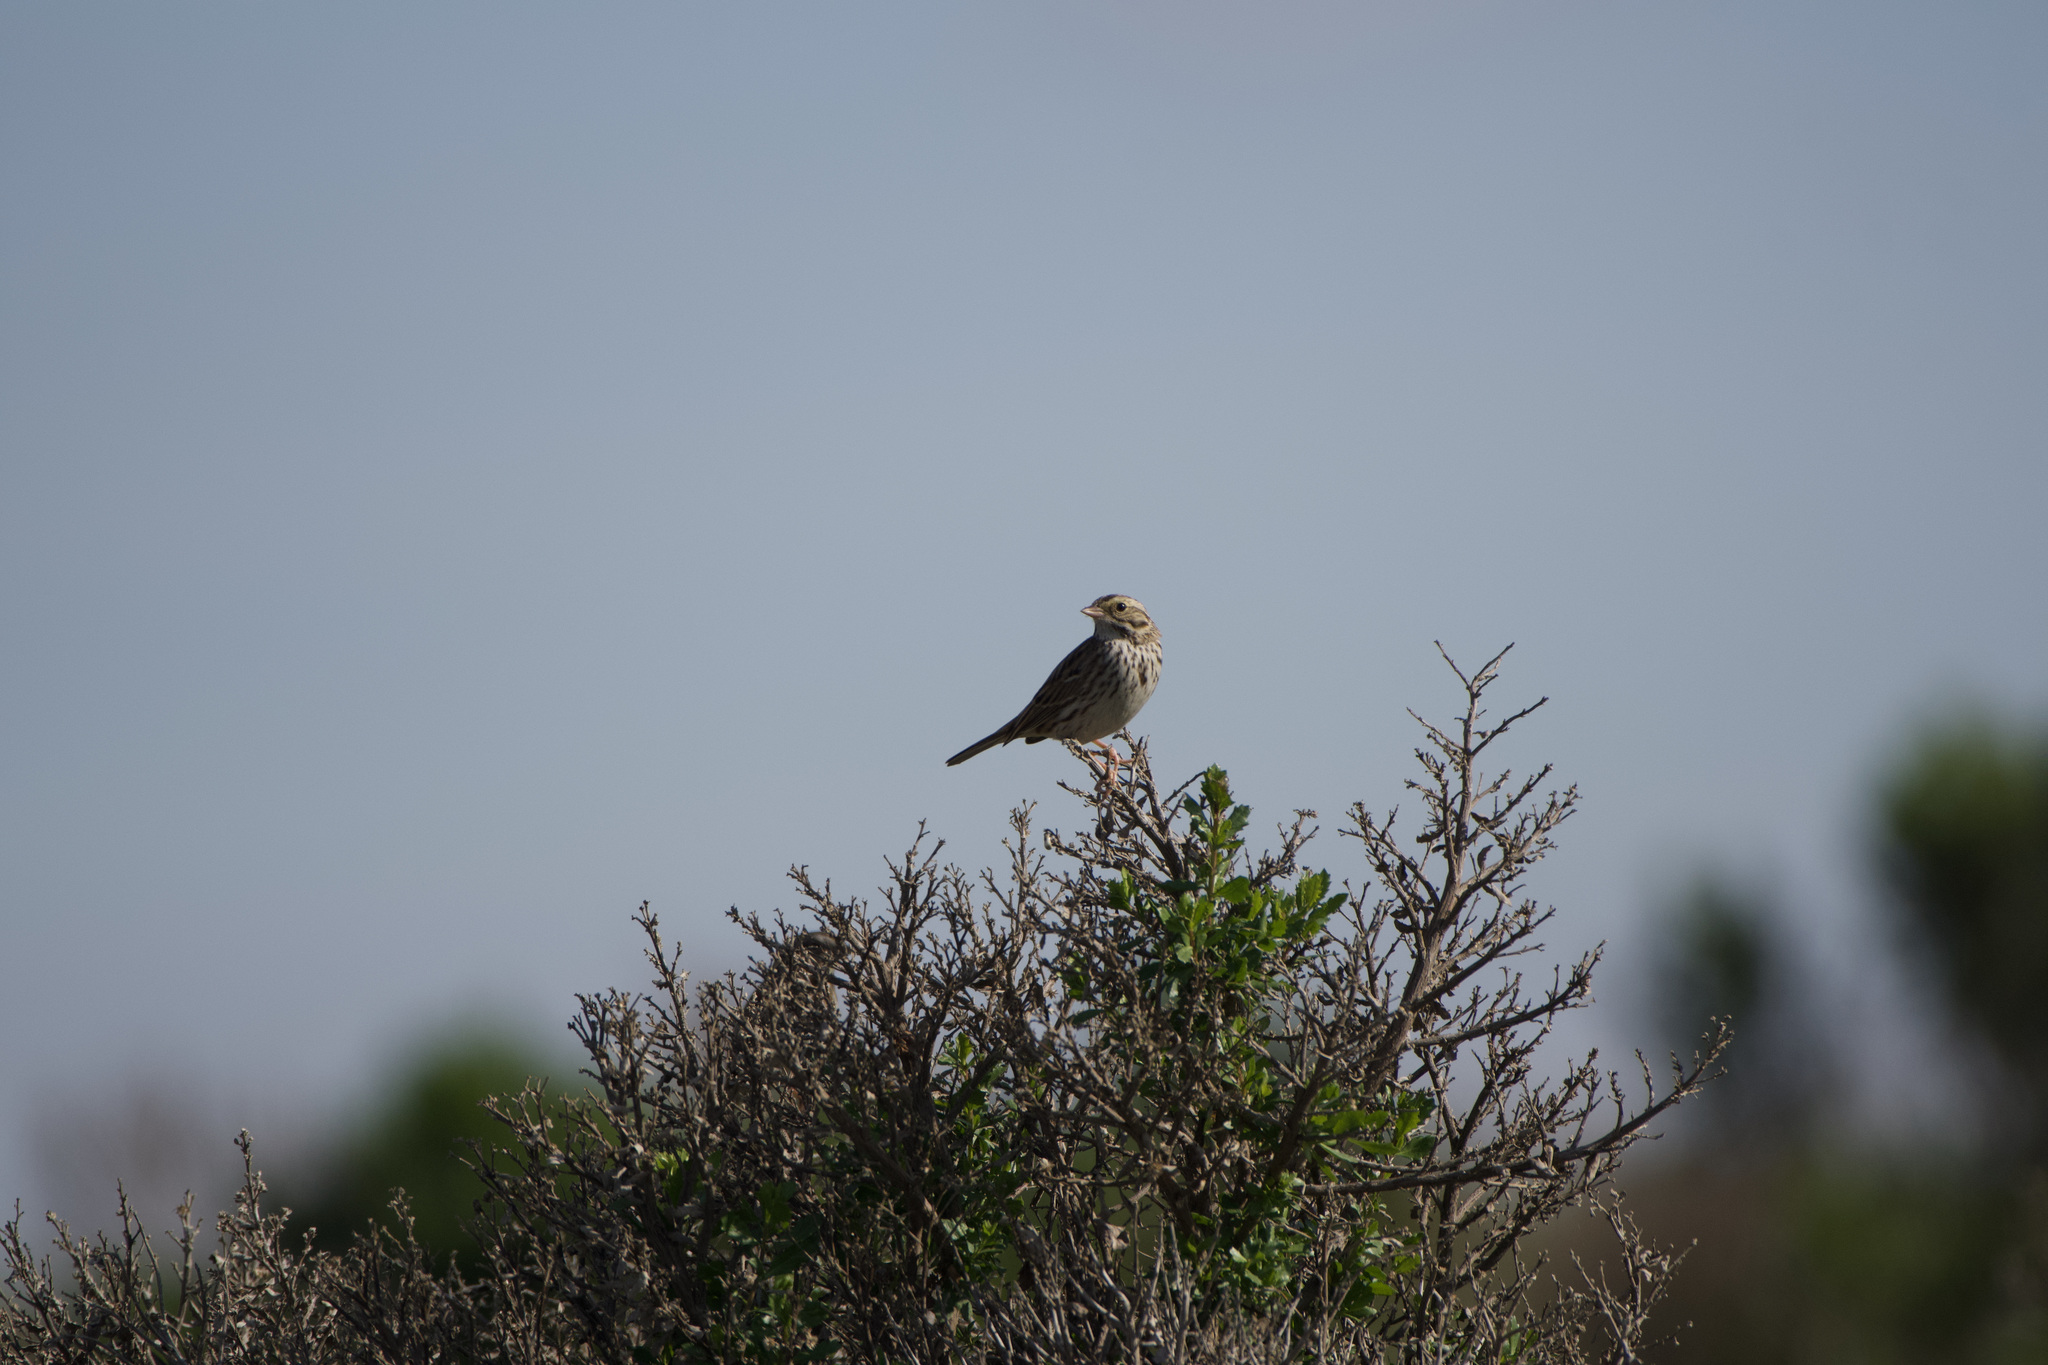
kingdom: Animalia
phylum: Chordata
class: Aves
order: Passeriformes
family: Passerellidae
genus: Passerculus
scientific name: Passerculus sandwichensis
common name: Savannah sparrow
